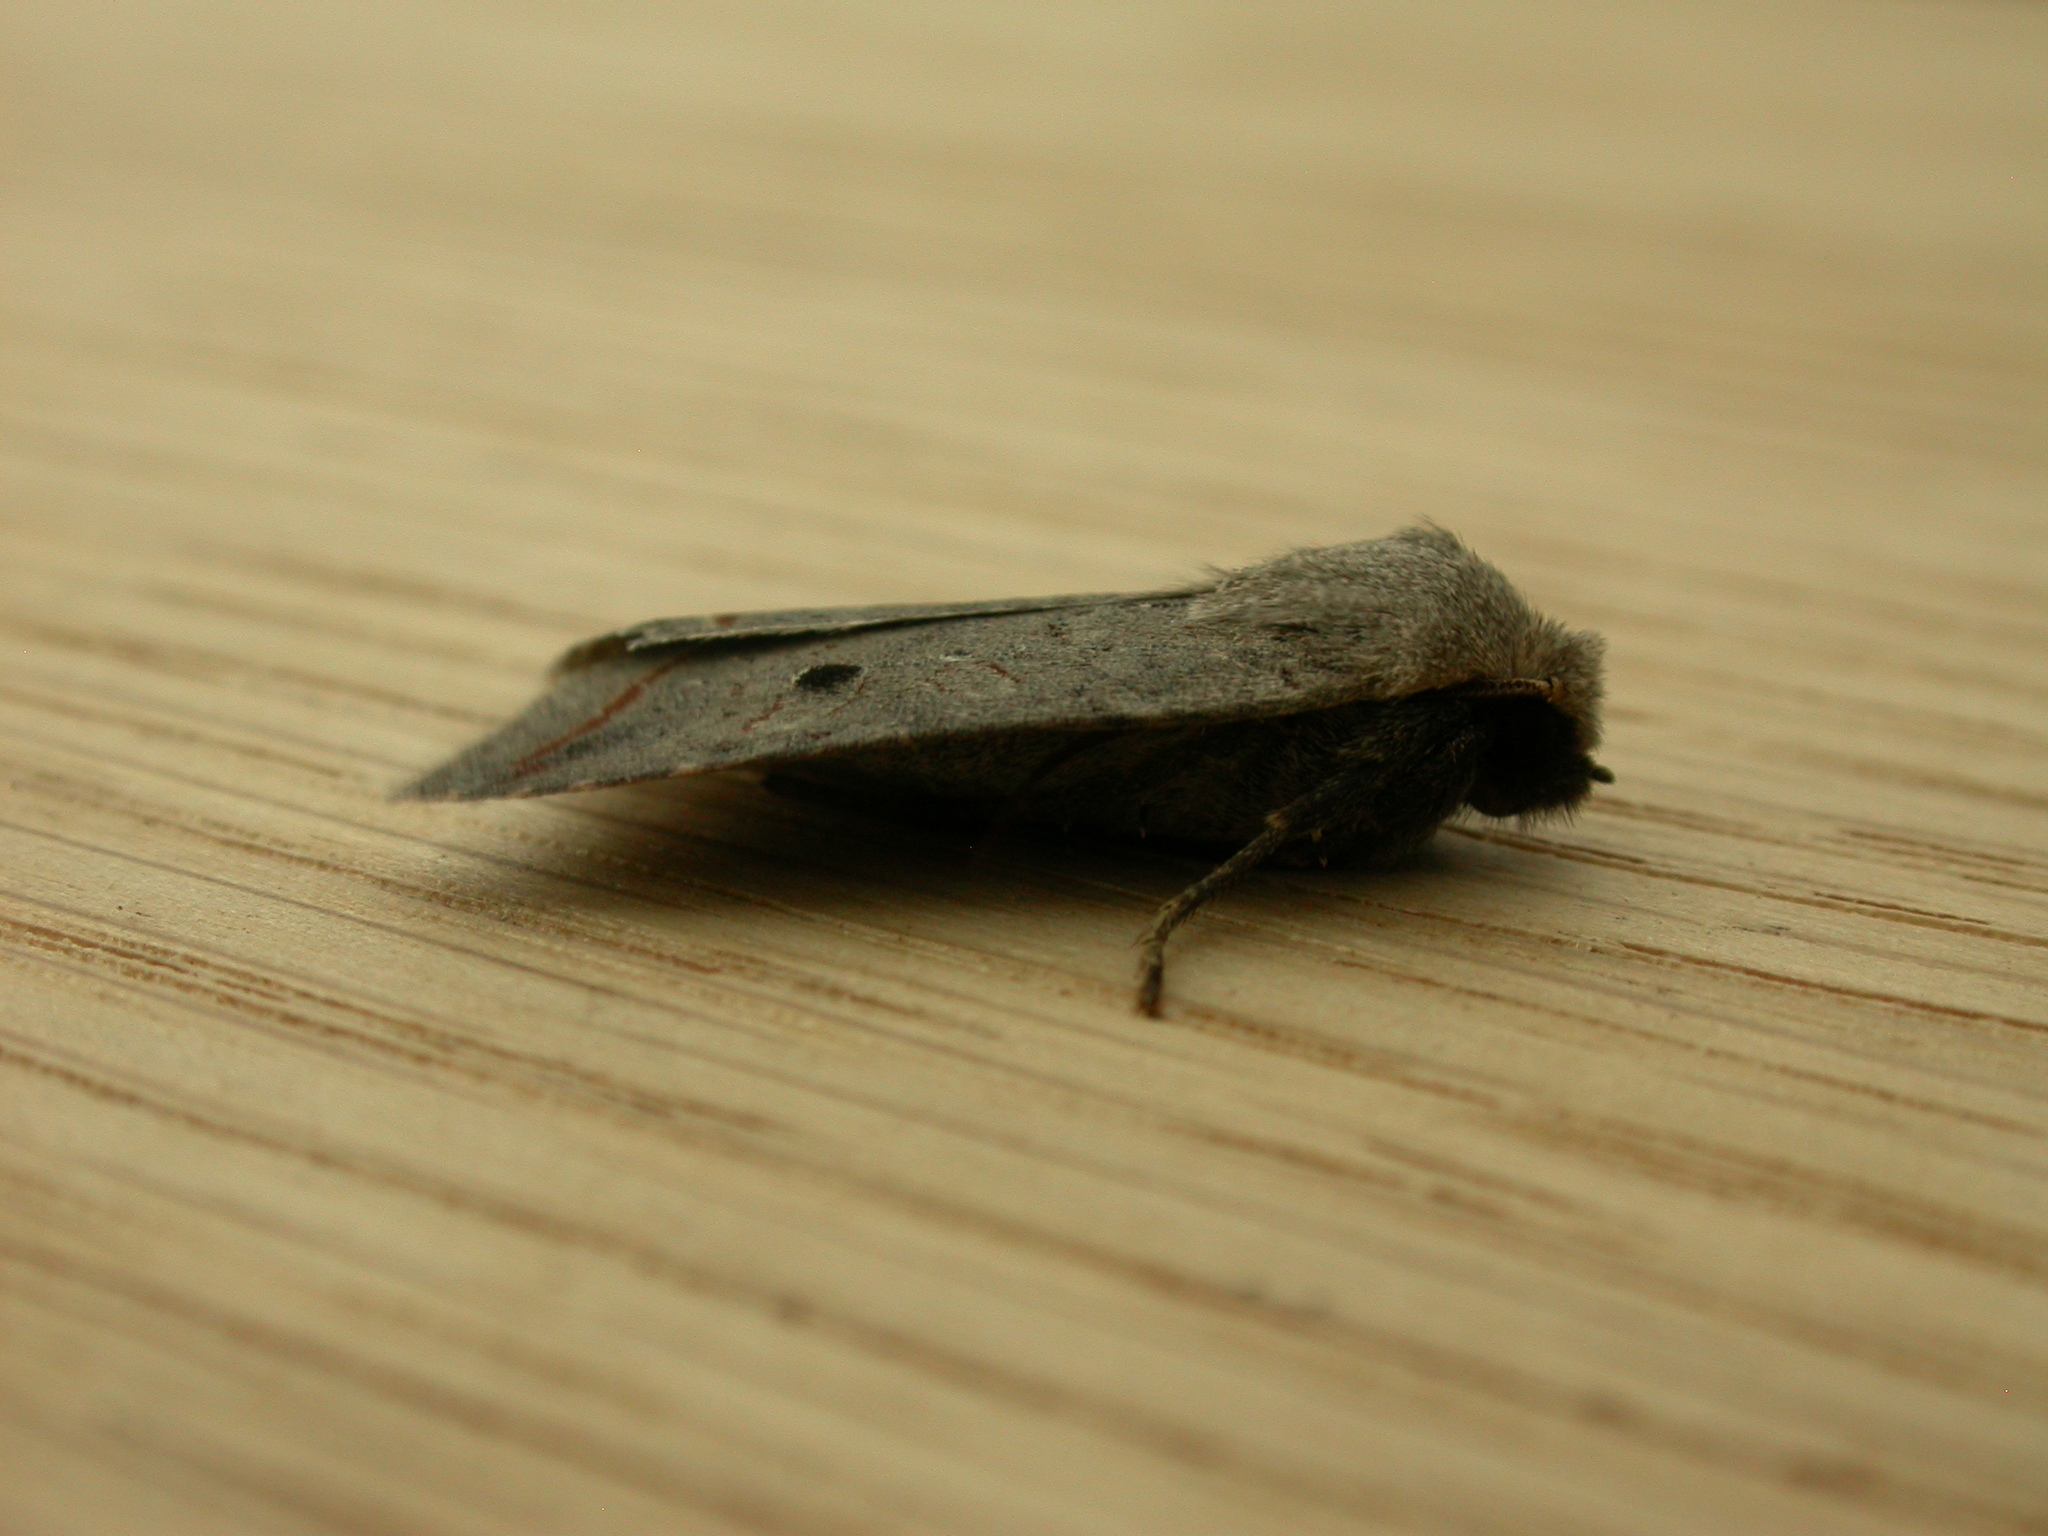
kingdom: Animalia
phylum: Arthropoda
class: Insecta
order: Lepidoptera
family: Noctuidae
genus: Agrochola
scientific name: Agrochola lota
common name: Red-line quaker
